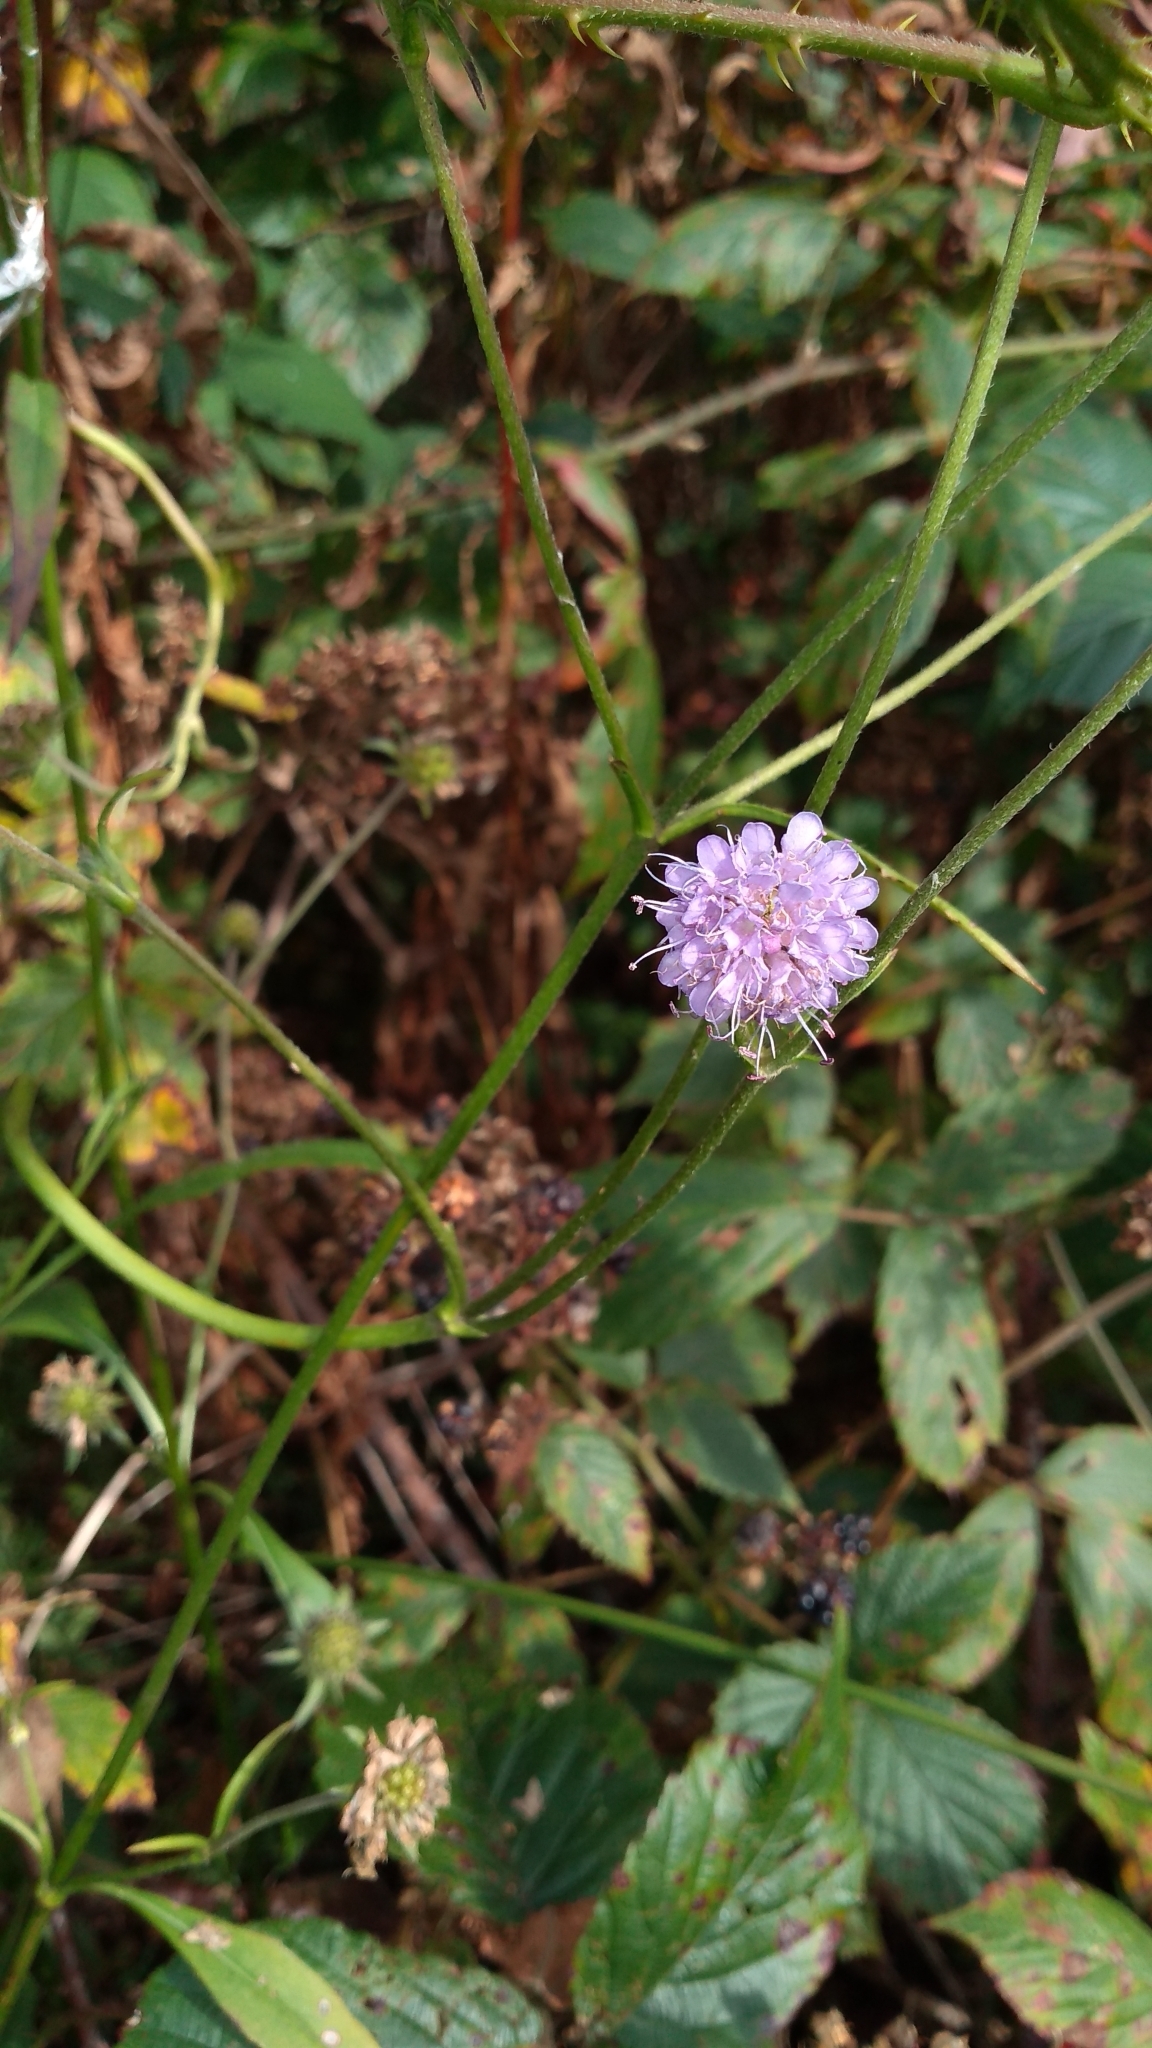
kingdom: Plantae
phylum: Tracheophyta
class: Magnoliopsida
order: Dipsacales
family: Caprifoliaceae
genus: Succisa
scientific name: Succisa pratensis
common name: Devil's-bit
